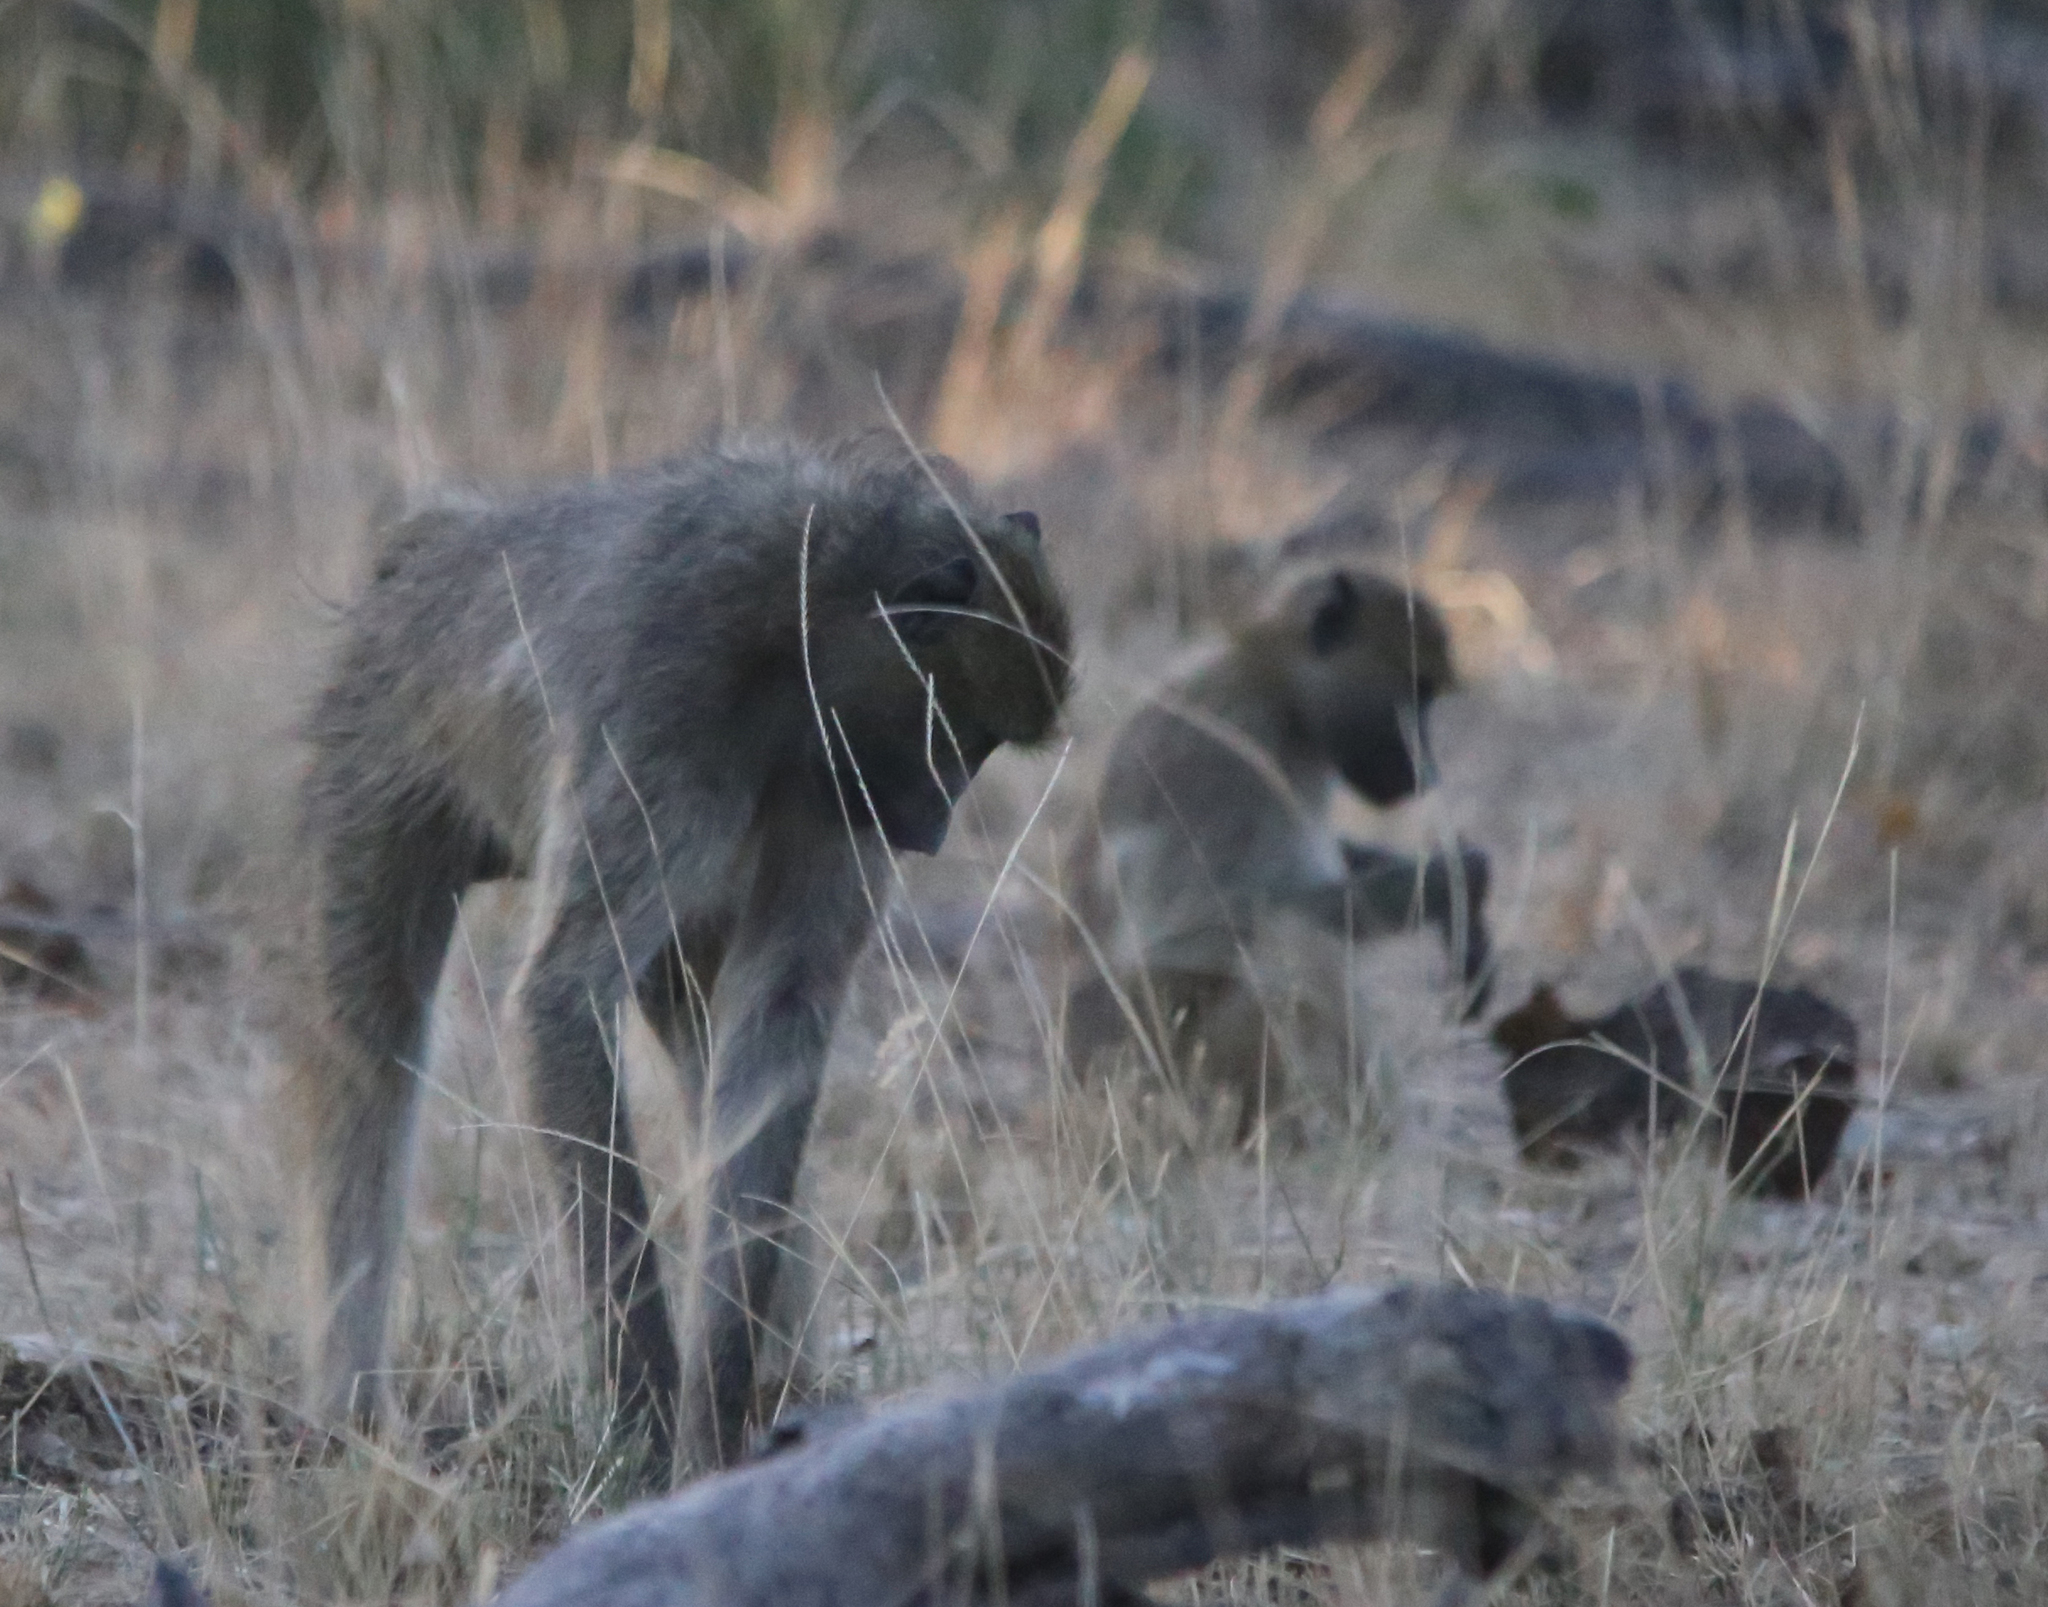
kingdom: Animalia
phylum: Chordata
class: Mammalia
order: Primates
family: Cercopithecidae
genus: Papio
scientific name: Papio ursinus
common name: Chacma baboon
